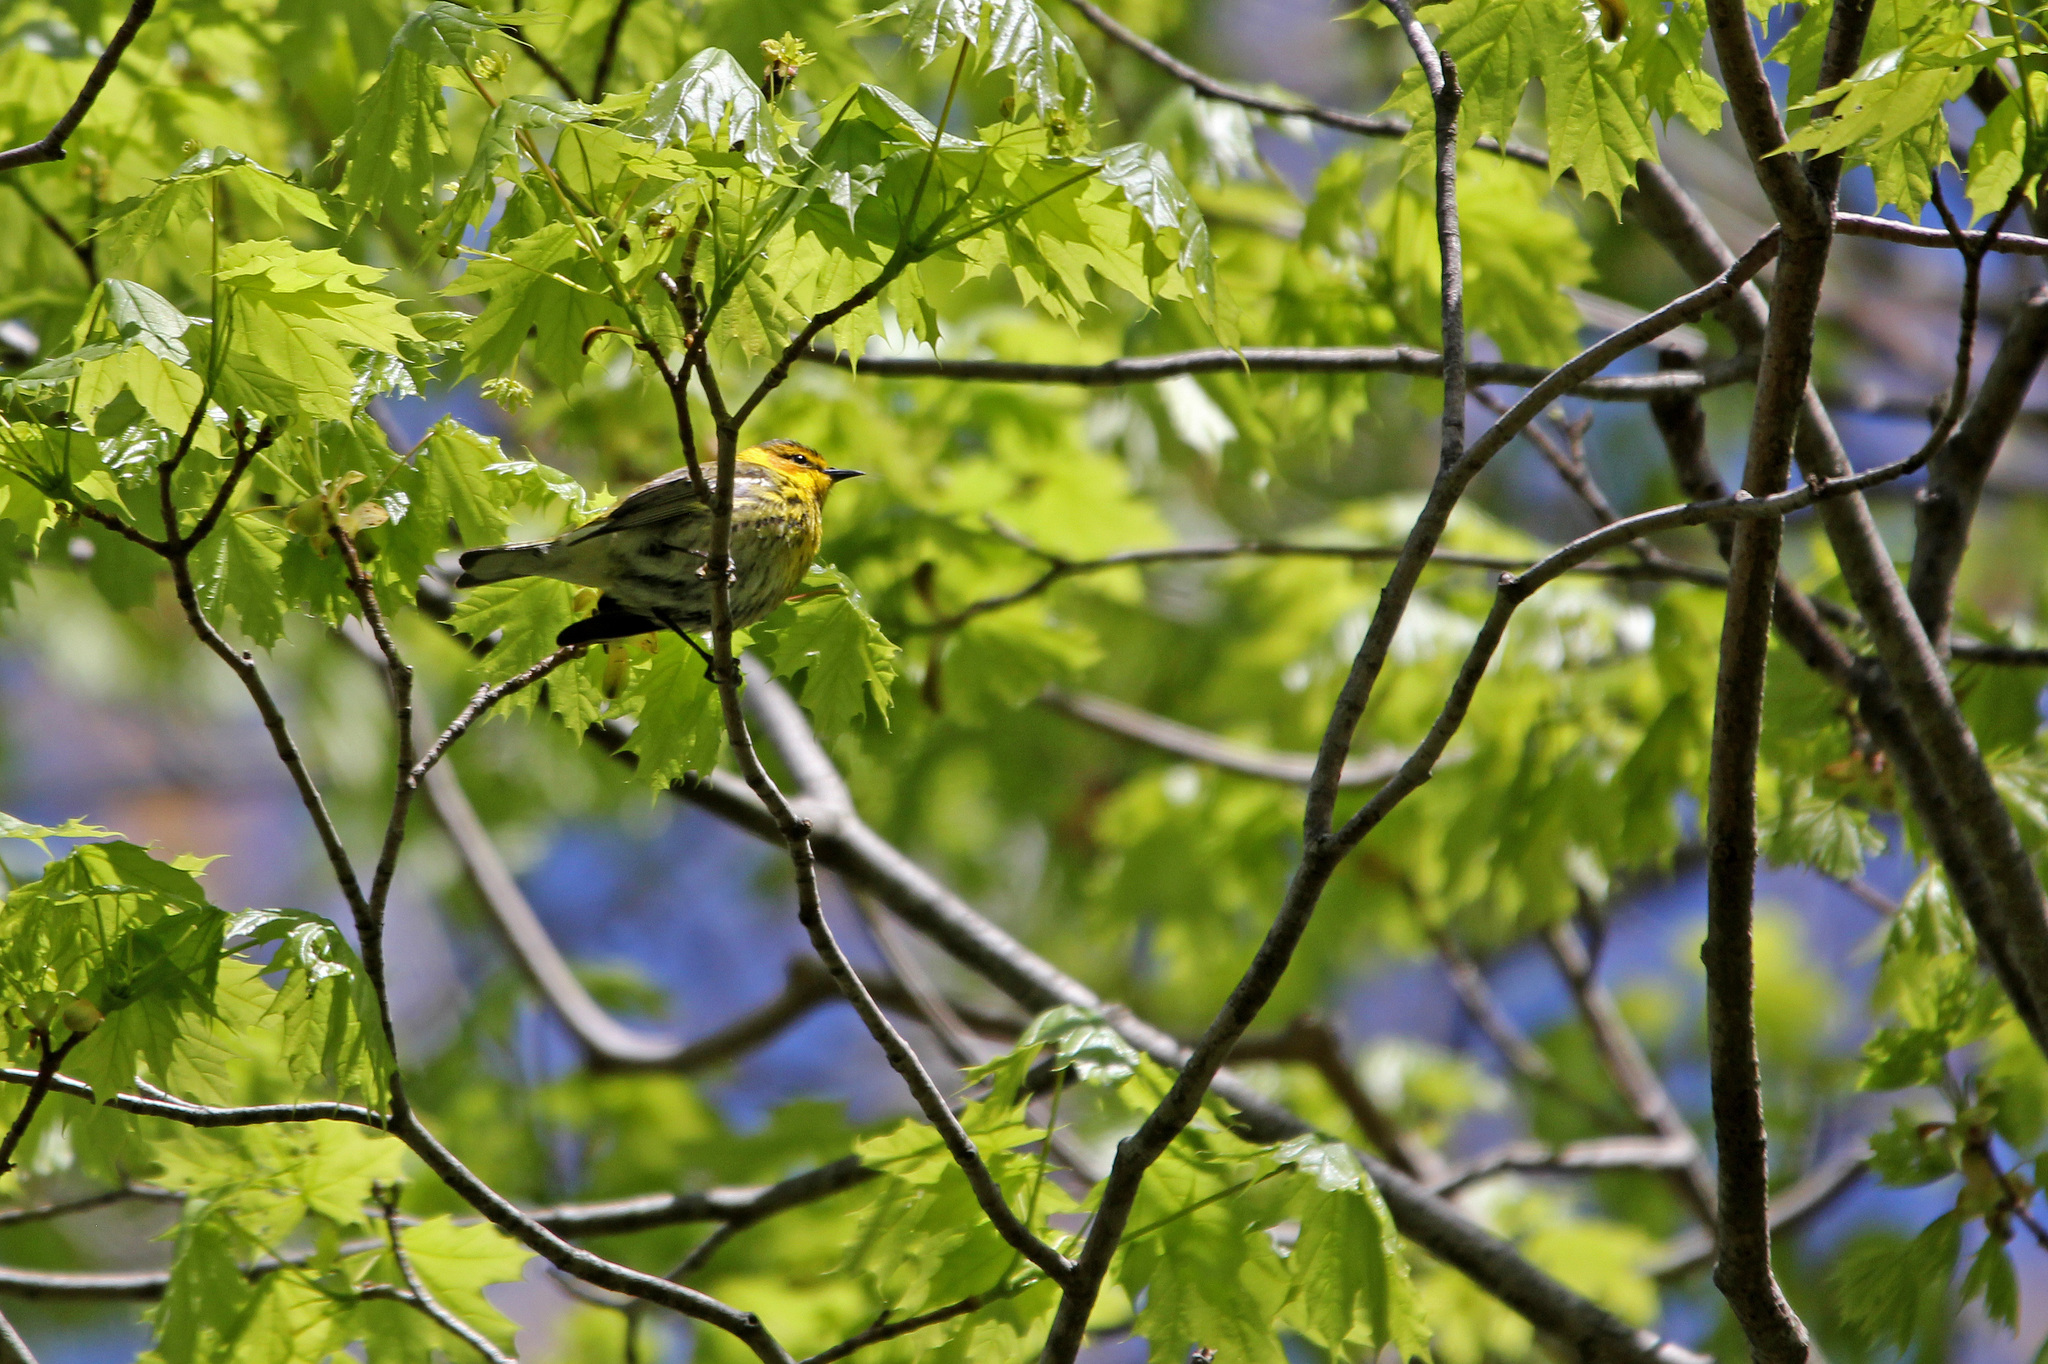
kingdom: Animalia
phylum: Chordata
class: Aves
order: Passeriformes
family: Parulidae
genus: Setophaga
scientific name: Setophaga tigrina
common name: Cape may warbler
